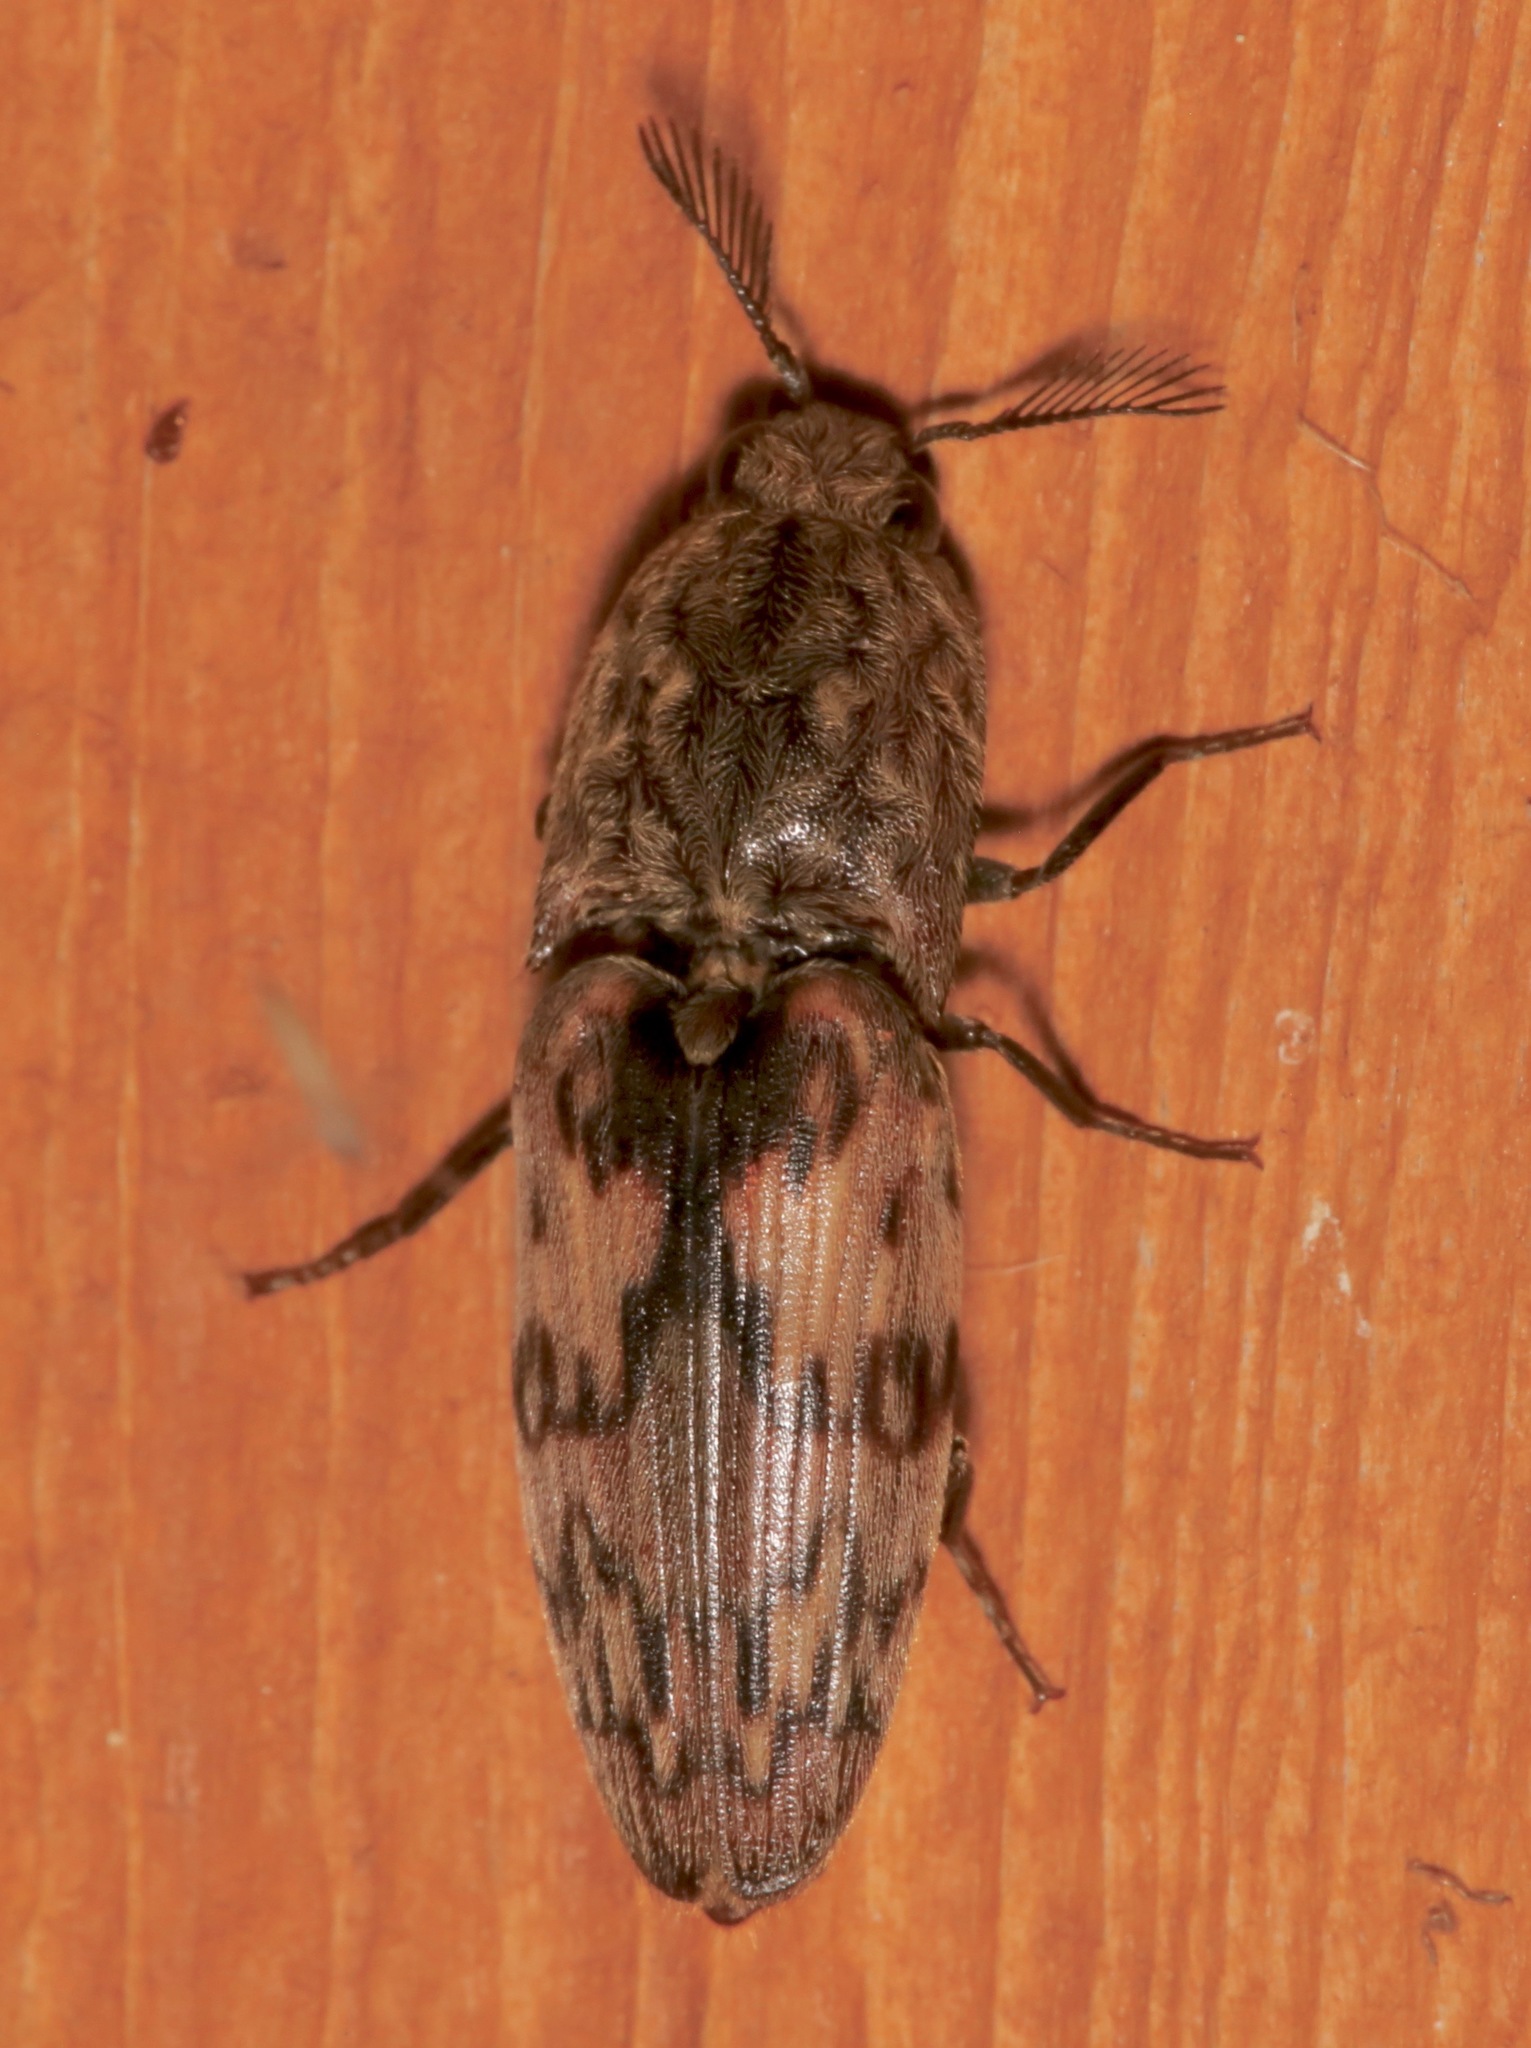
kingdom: Animalia
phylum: Arthropoda
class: Insecta
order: Coleoptera
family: Elateridae
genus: Pherhimius
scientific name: Pherhimius fascicularis
